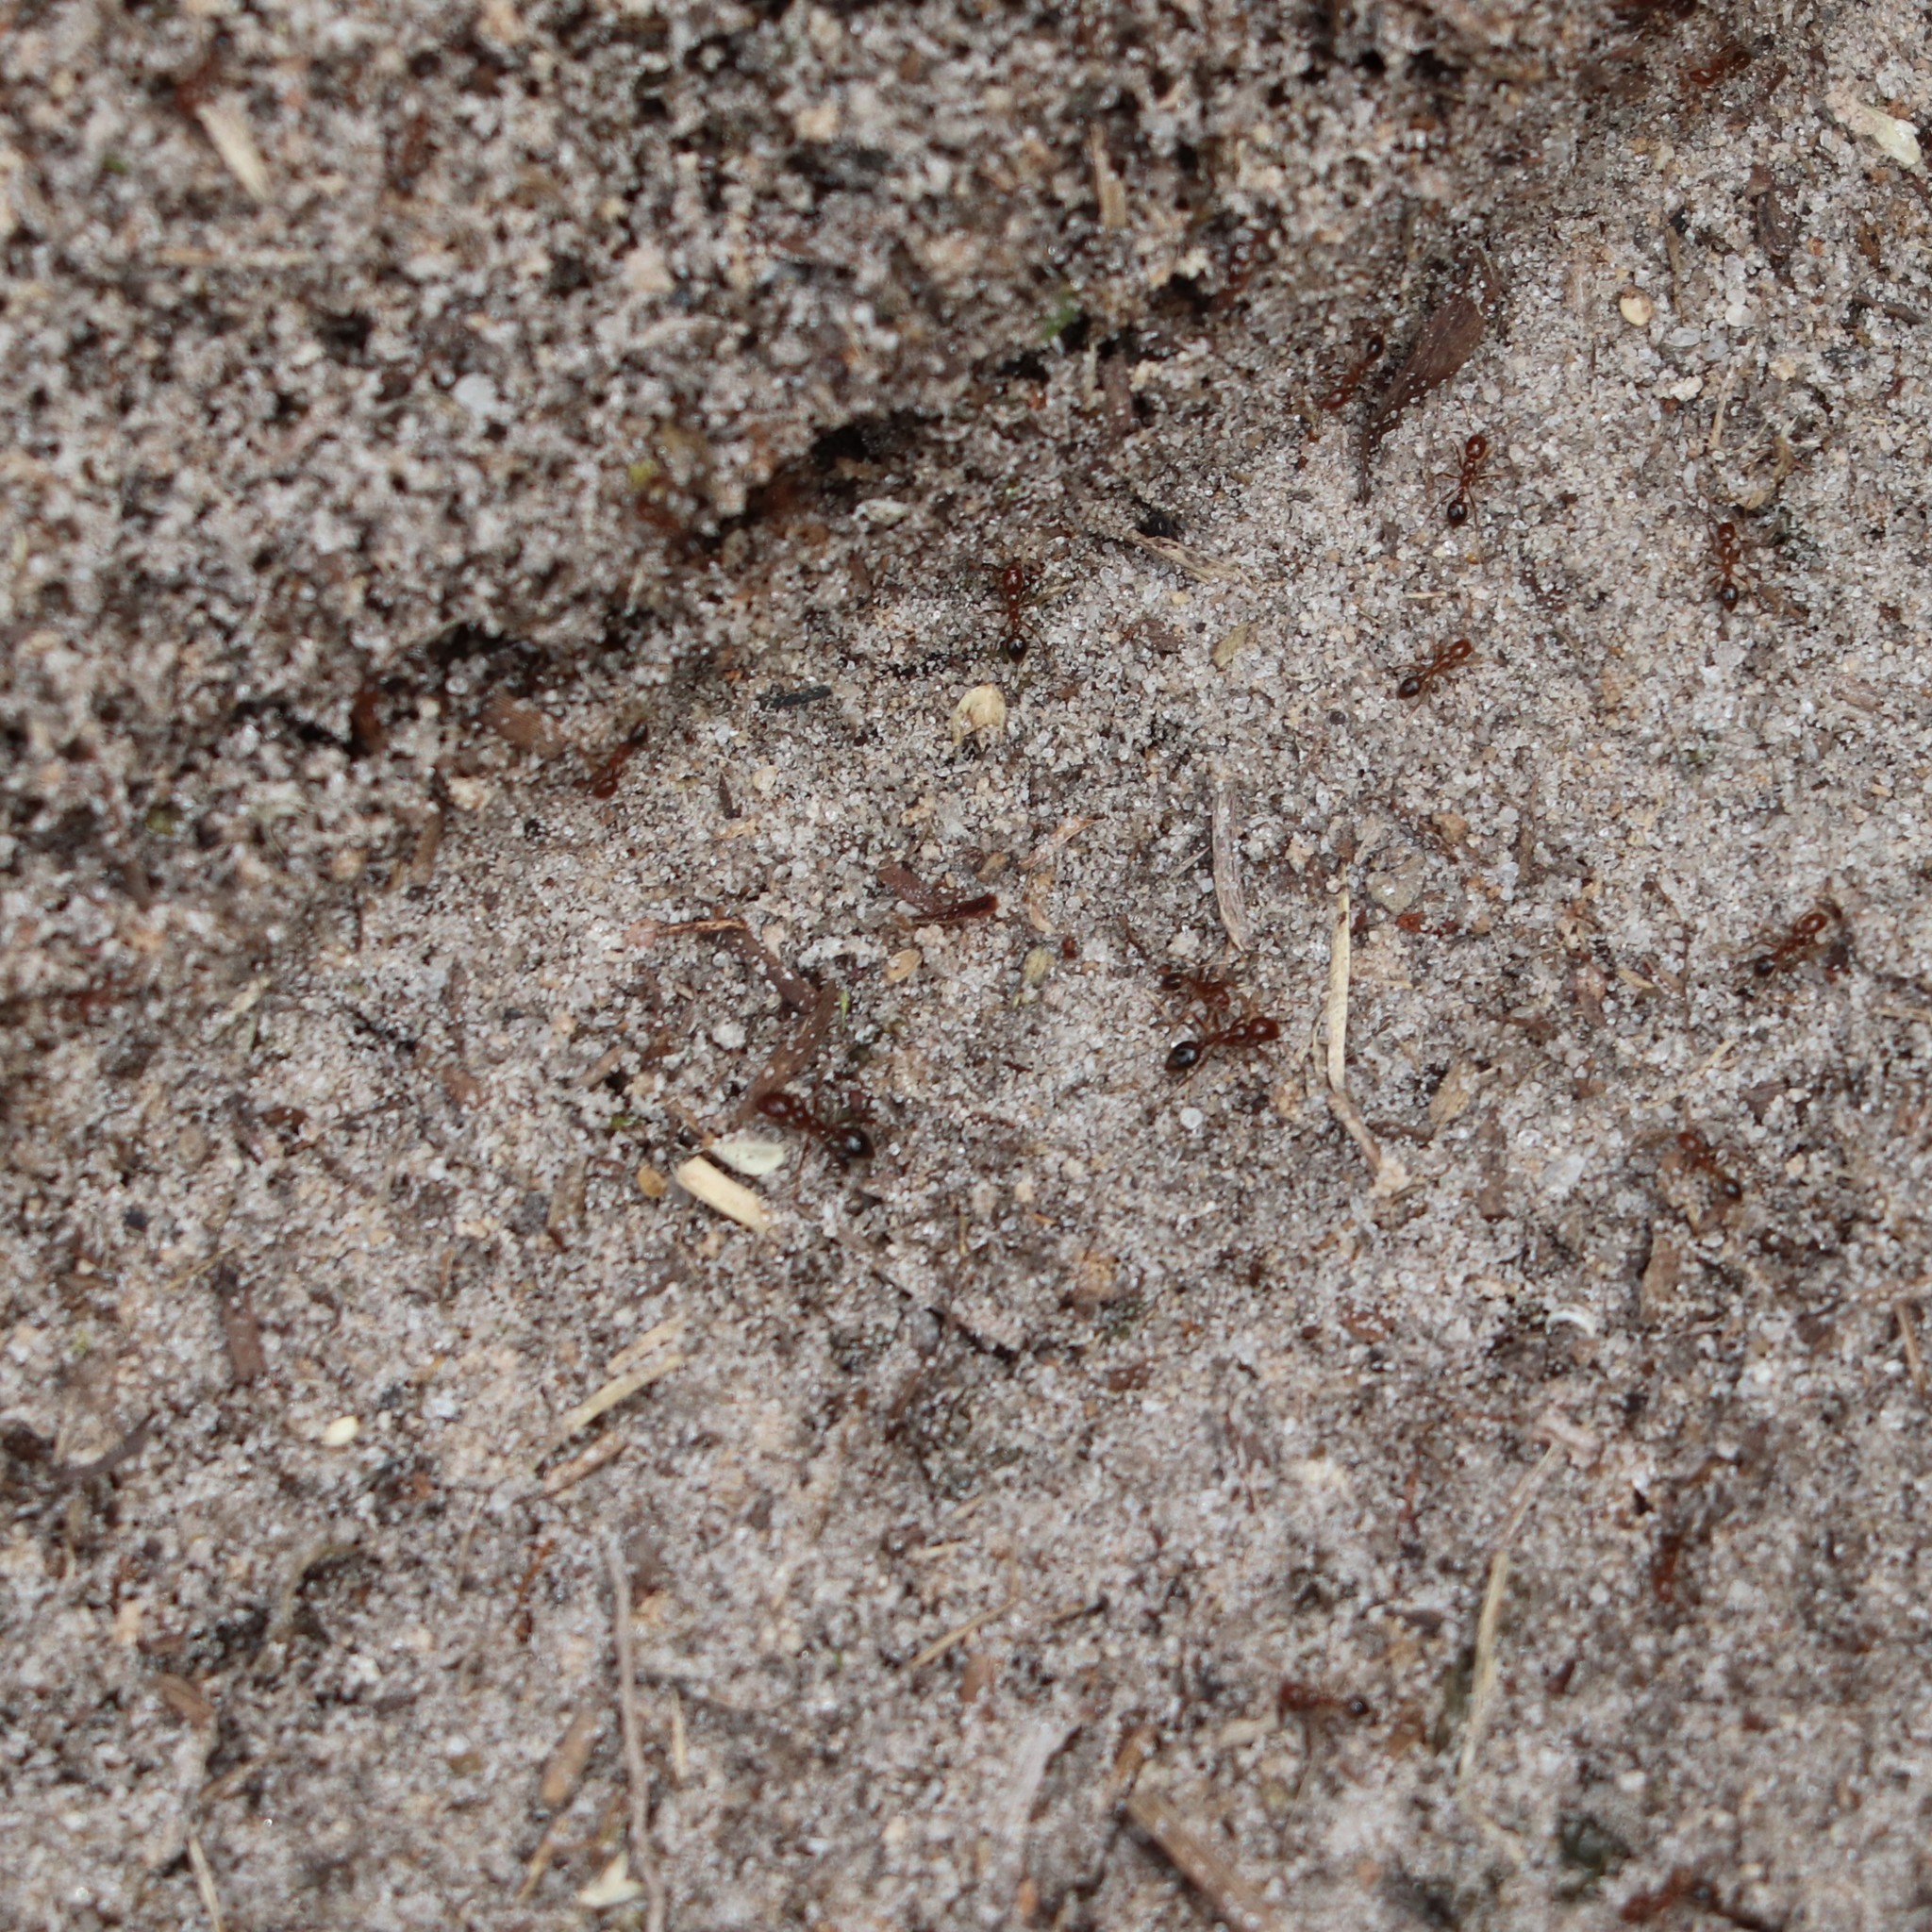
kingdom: Animalia
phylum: Arthropoda
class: Insecta
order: Hymenoptera
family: Formicidae
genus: Solenopsis
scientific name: Solenopsis invicta
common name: Red imported fire ant
